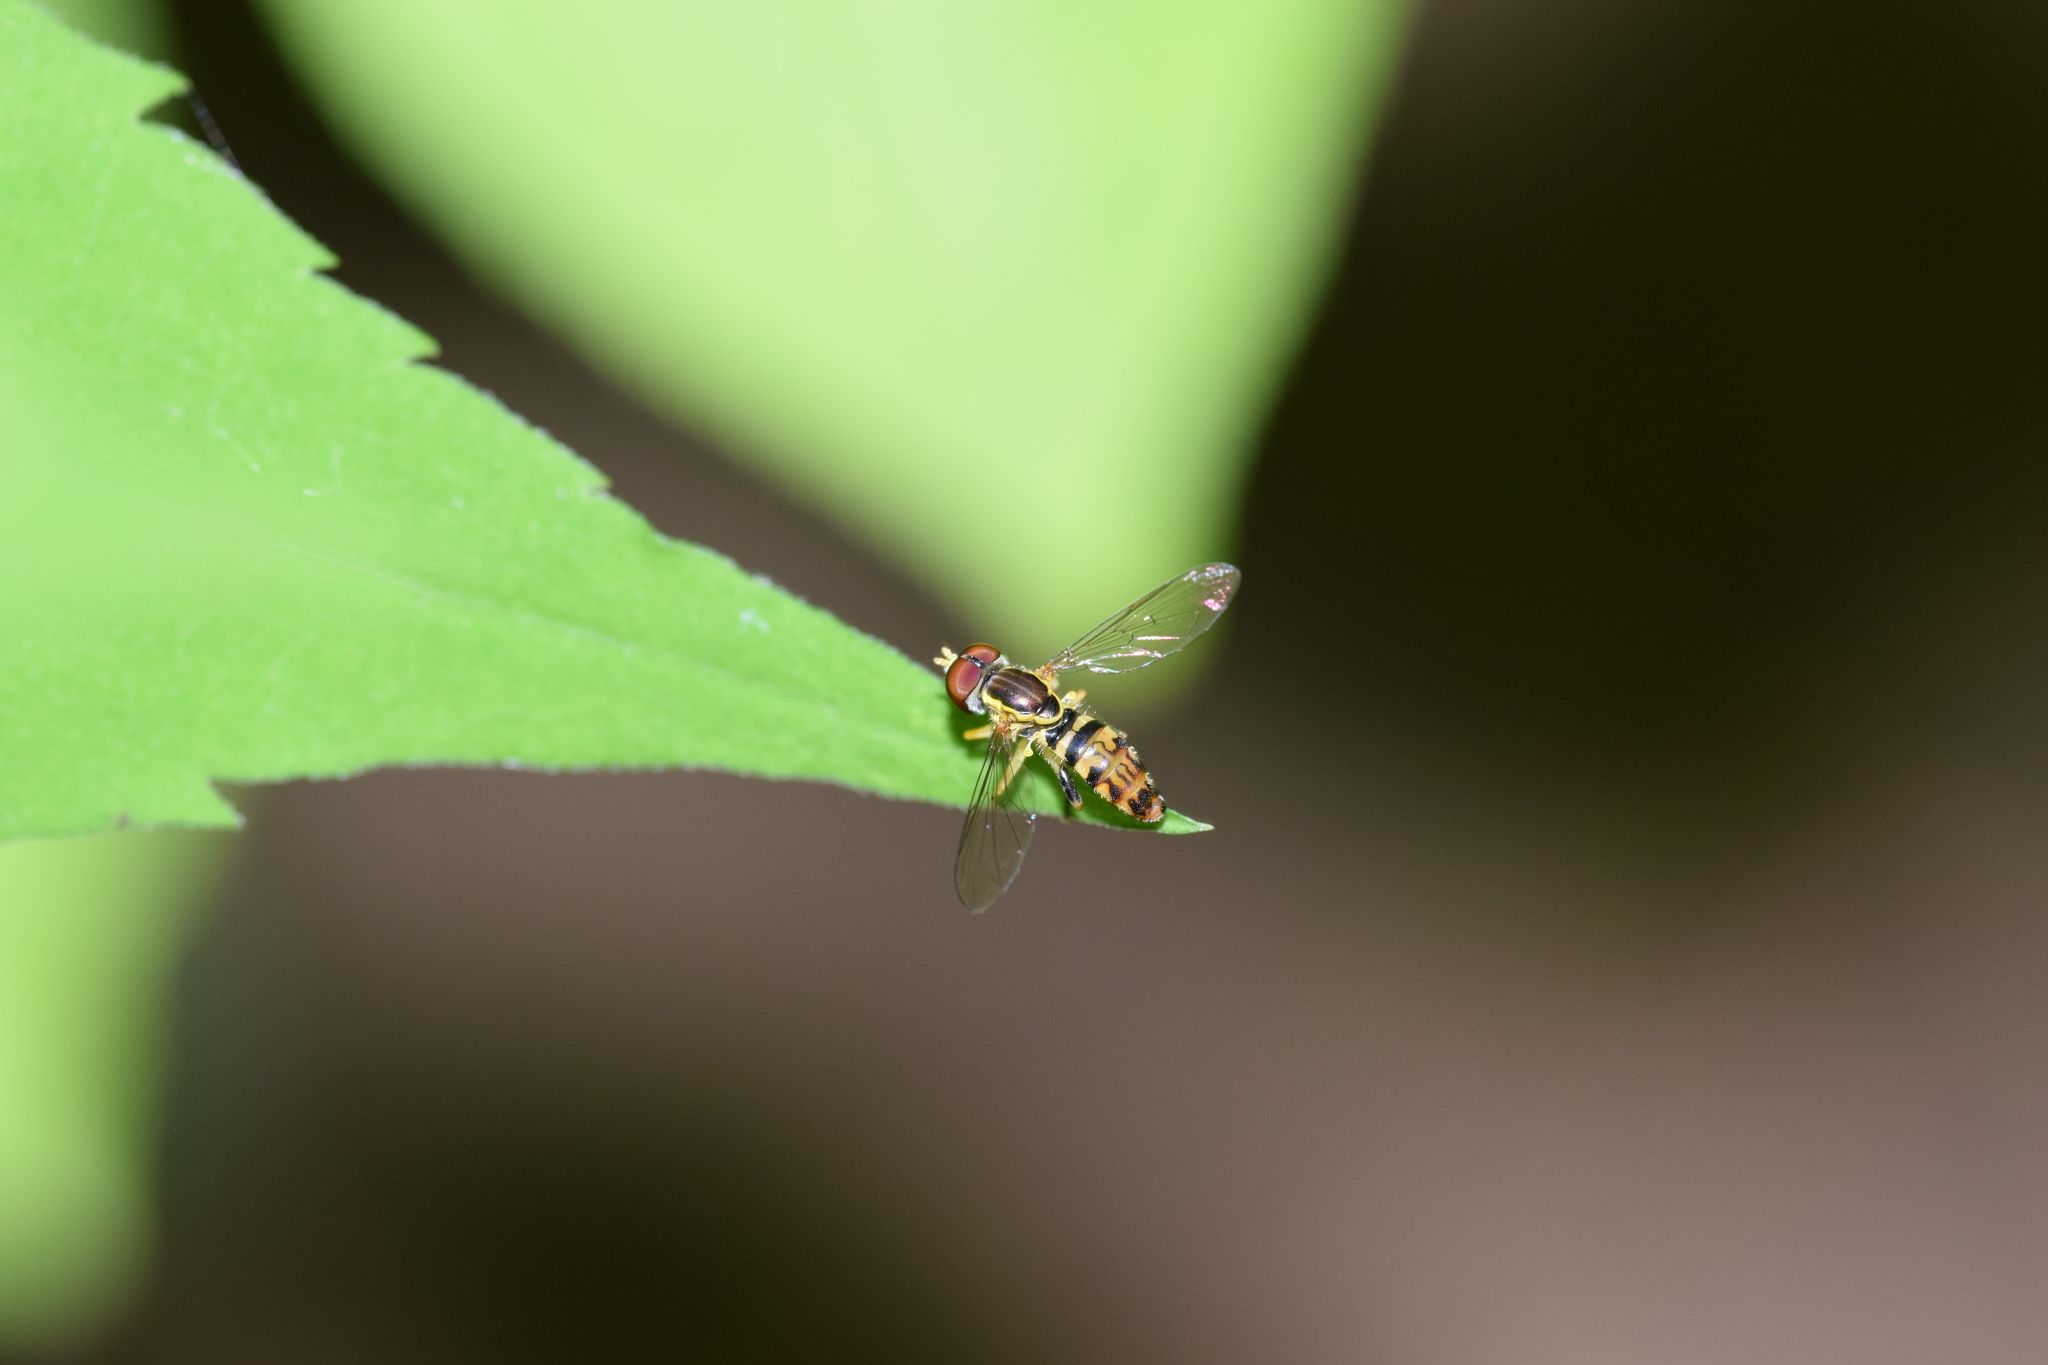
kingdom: Animalia
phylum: Arthropoda
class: Insecta
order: Diptera
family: Syrphidae
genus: Toxomerus
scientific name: Toxomerus geminatus
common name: Eastern calligrapher
